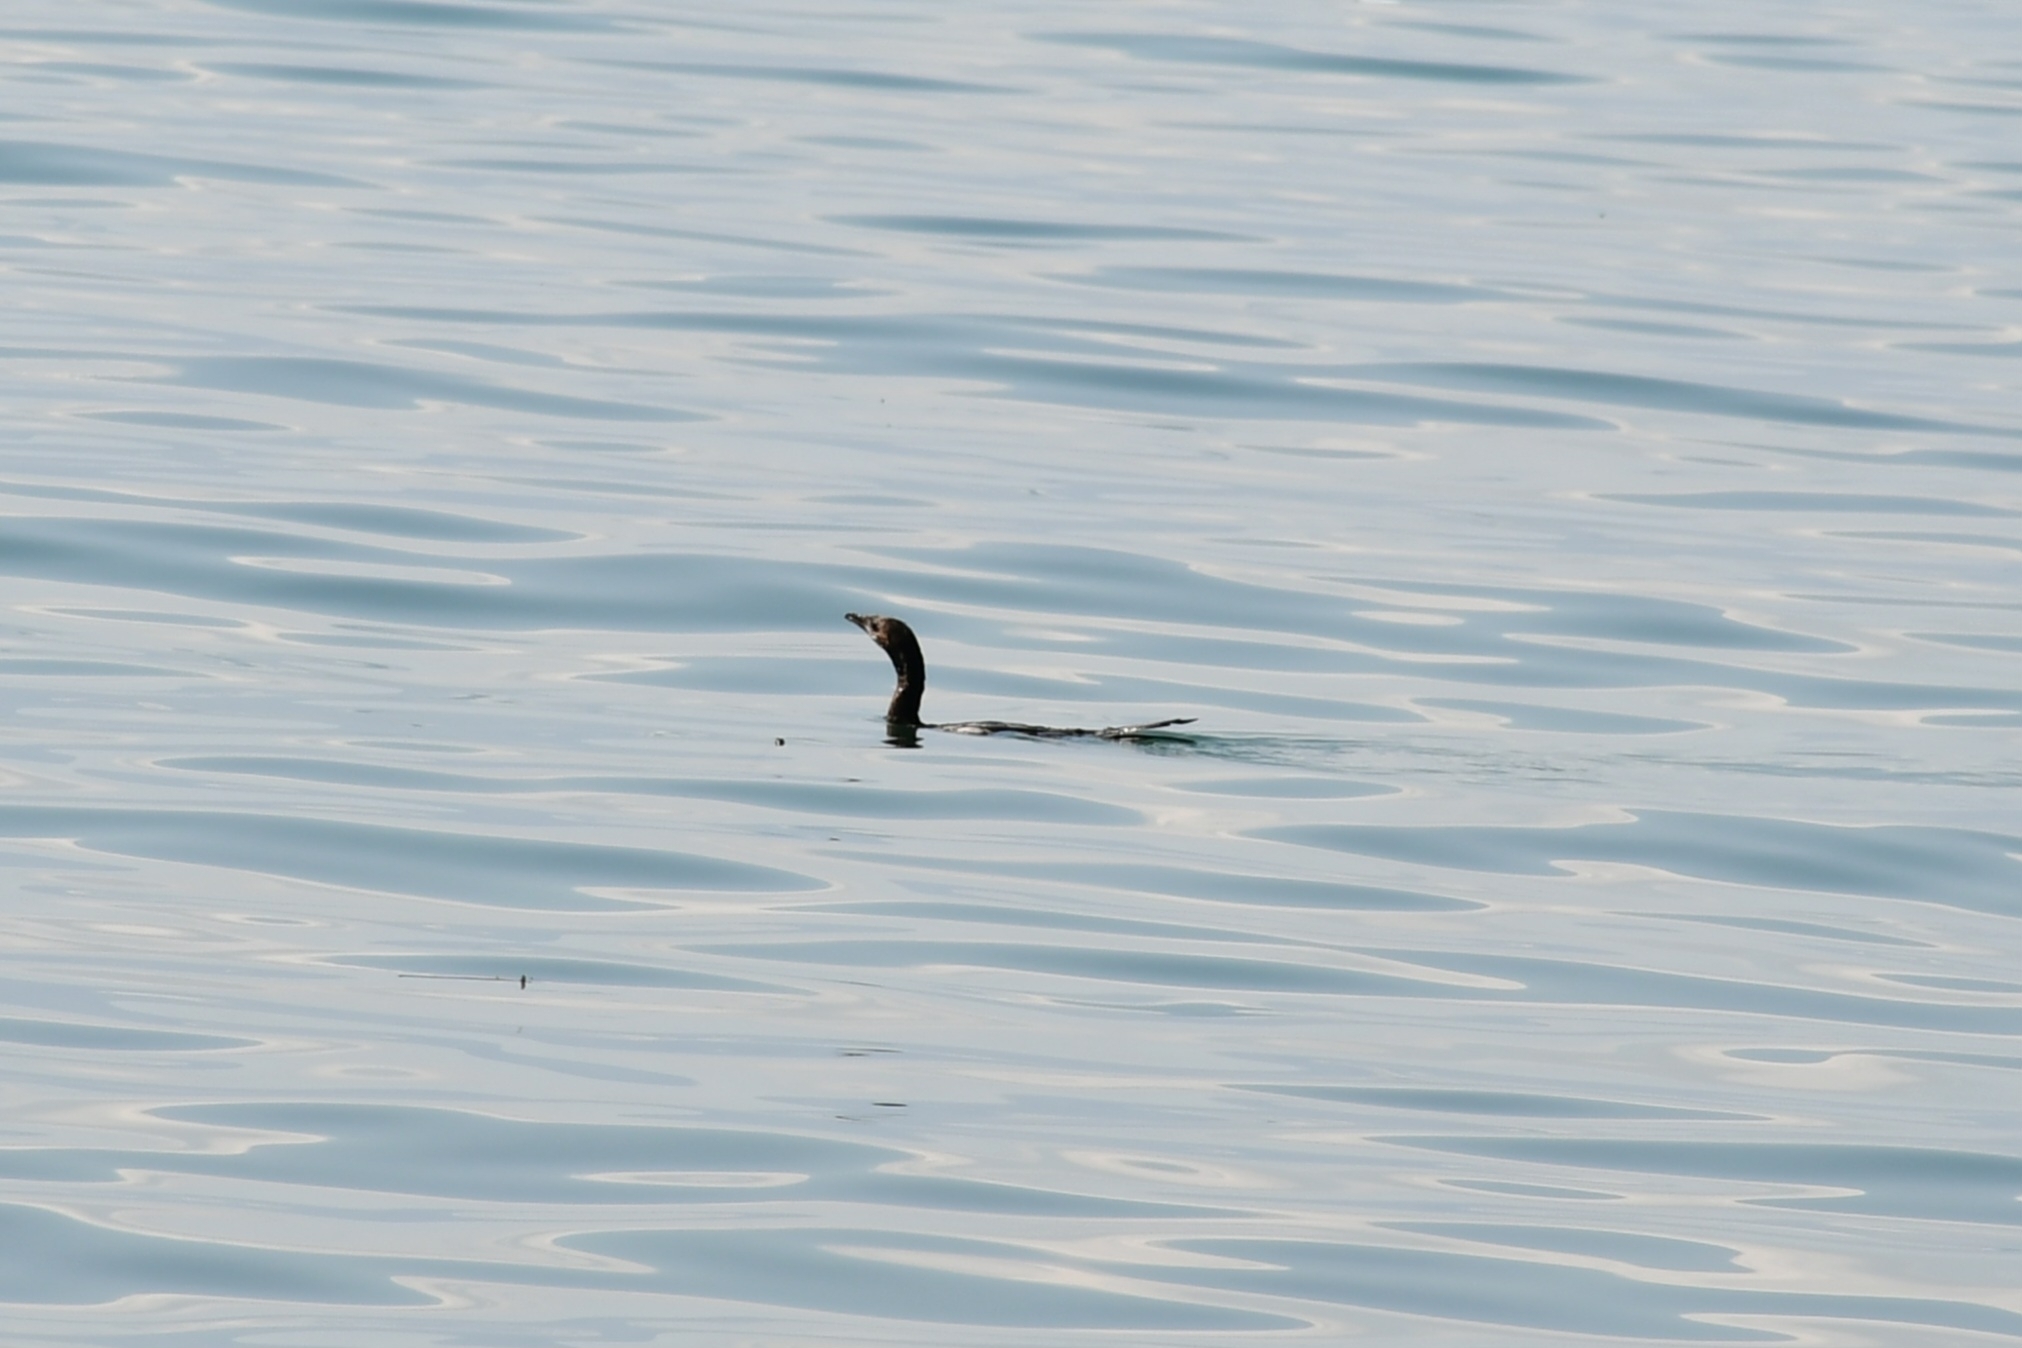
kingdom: Animalia
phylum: Chordata
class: Aves
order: Suliformes
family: Phalacrocoracidae
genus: Microcarbo
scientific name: Microcarbo pygmaeus
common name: Pygmy cormorant
